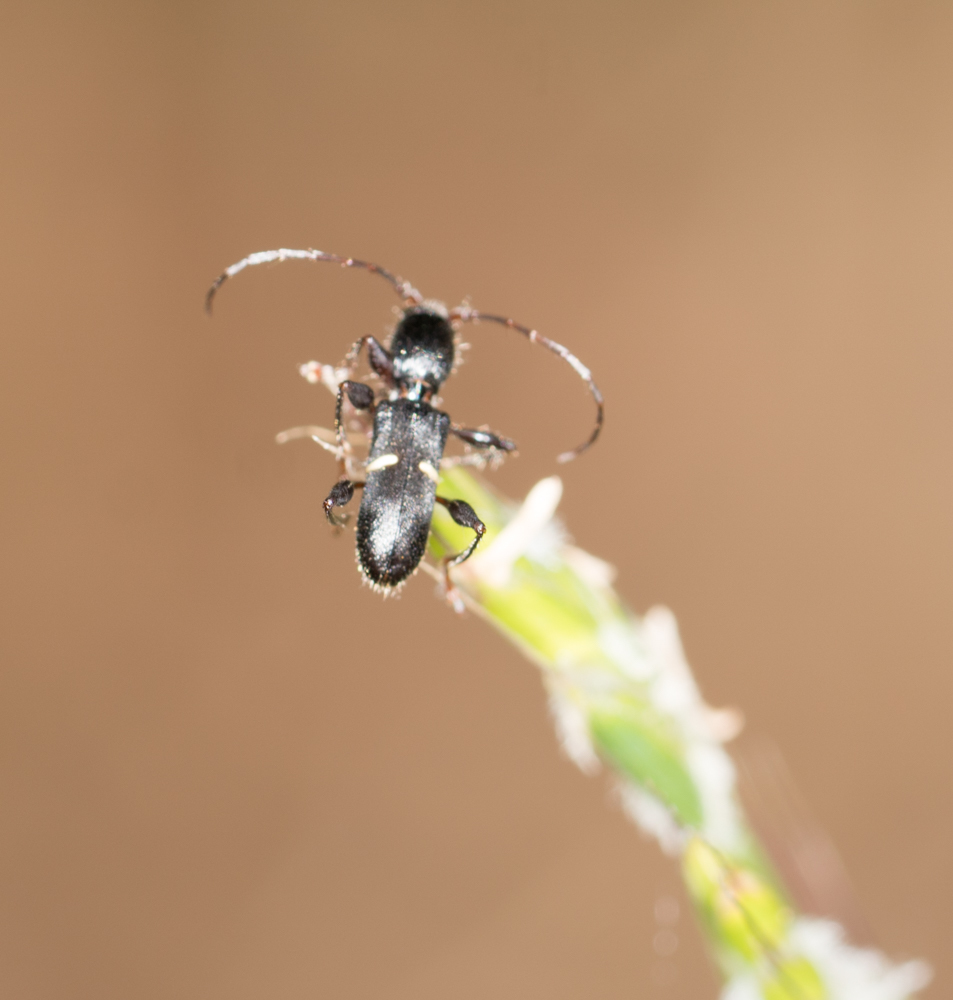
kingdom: Animalia
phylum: Arthropoda
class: Insecta
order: Coleoptera
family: Cerambycidae
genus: Euderces
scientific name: Euderces picipes
